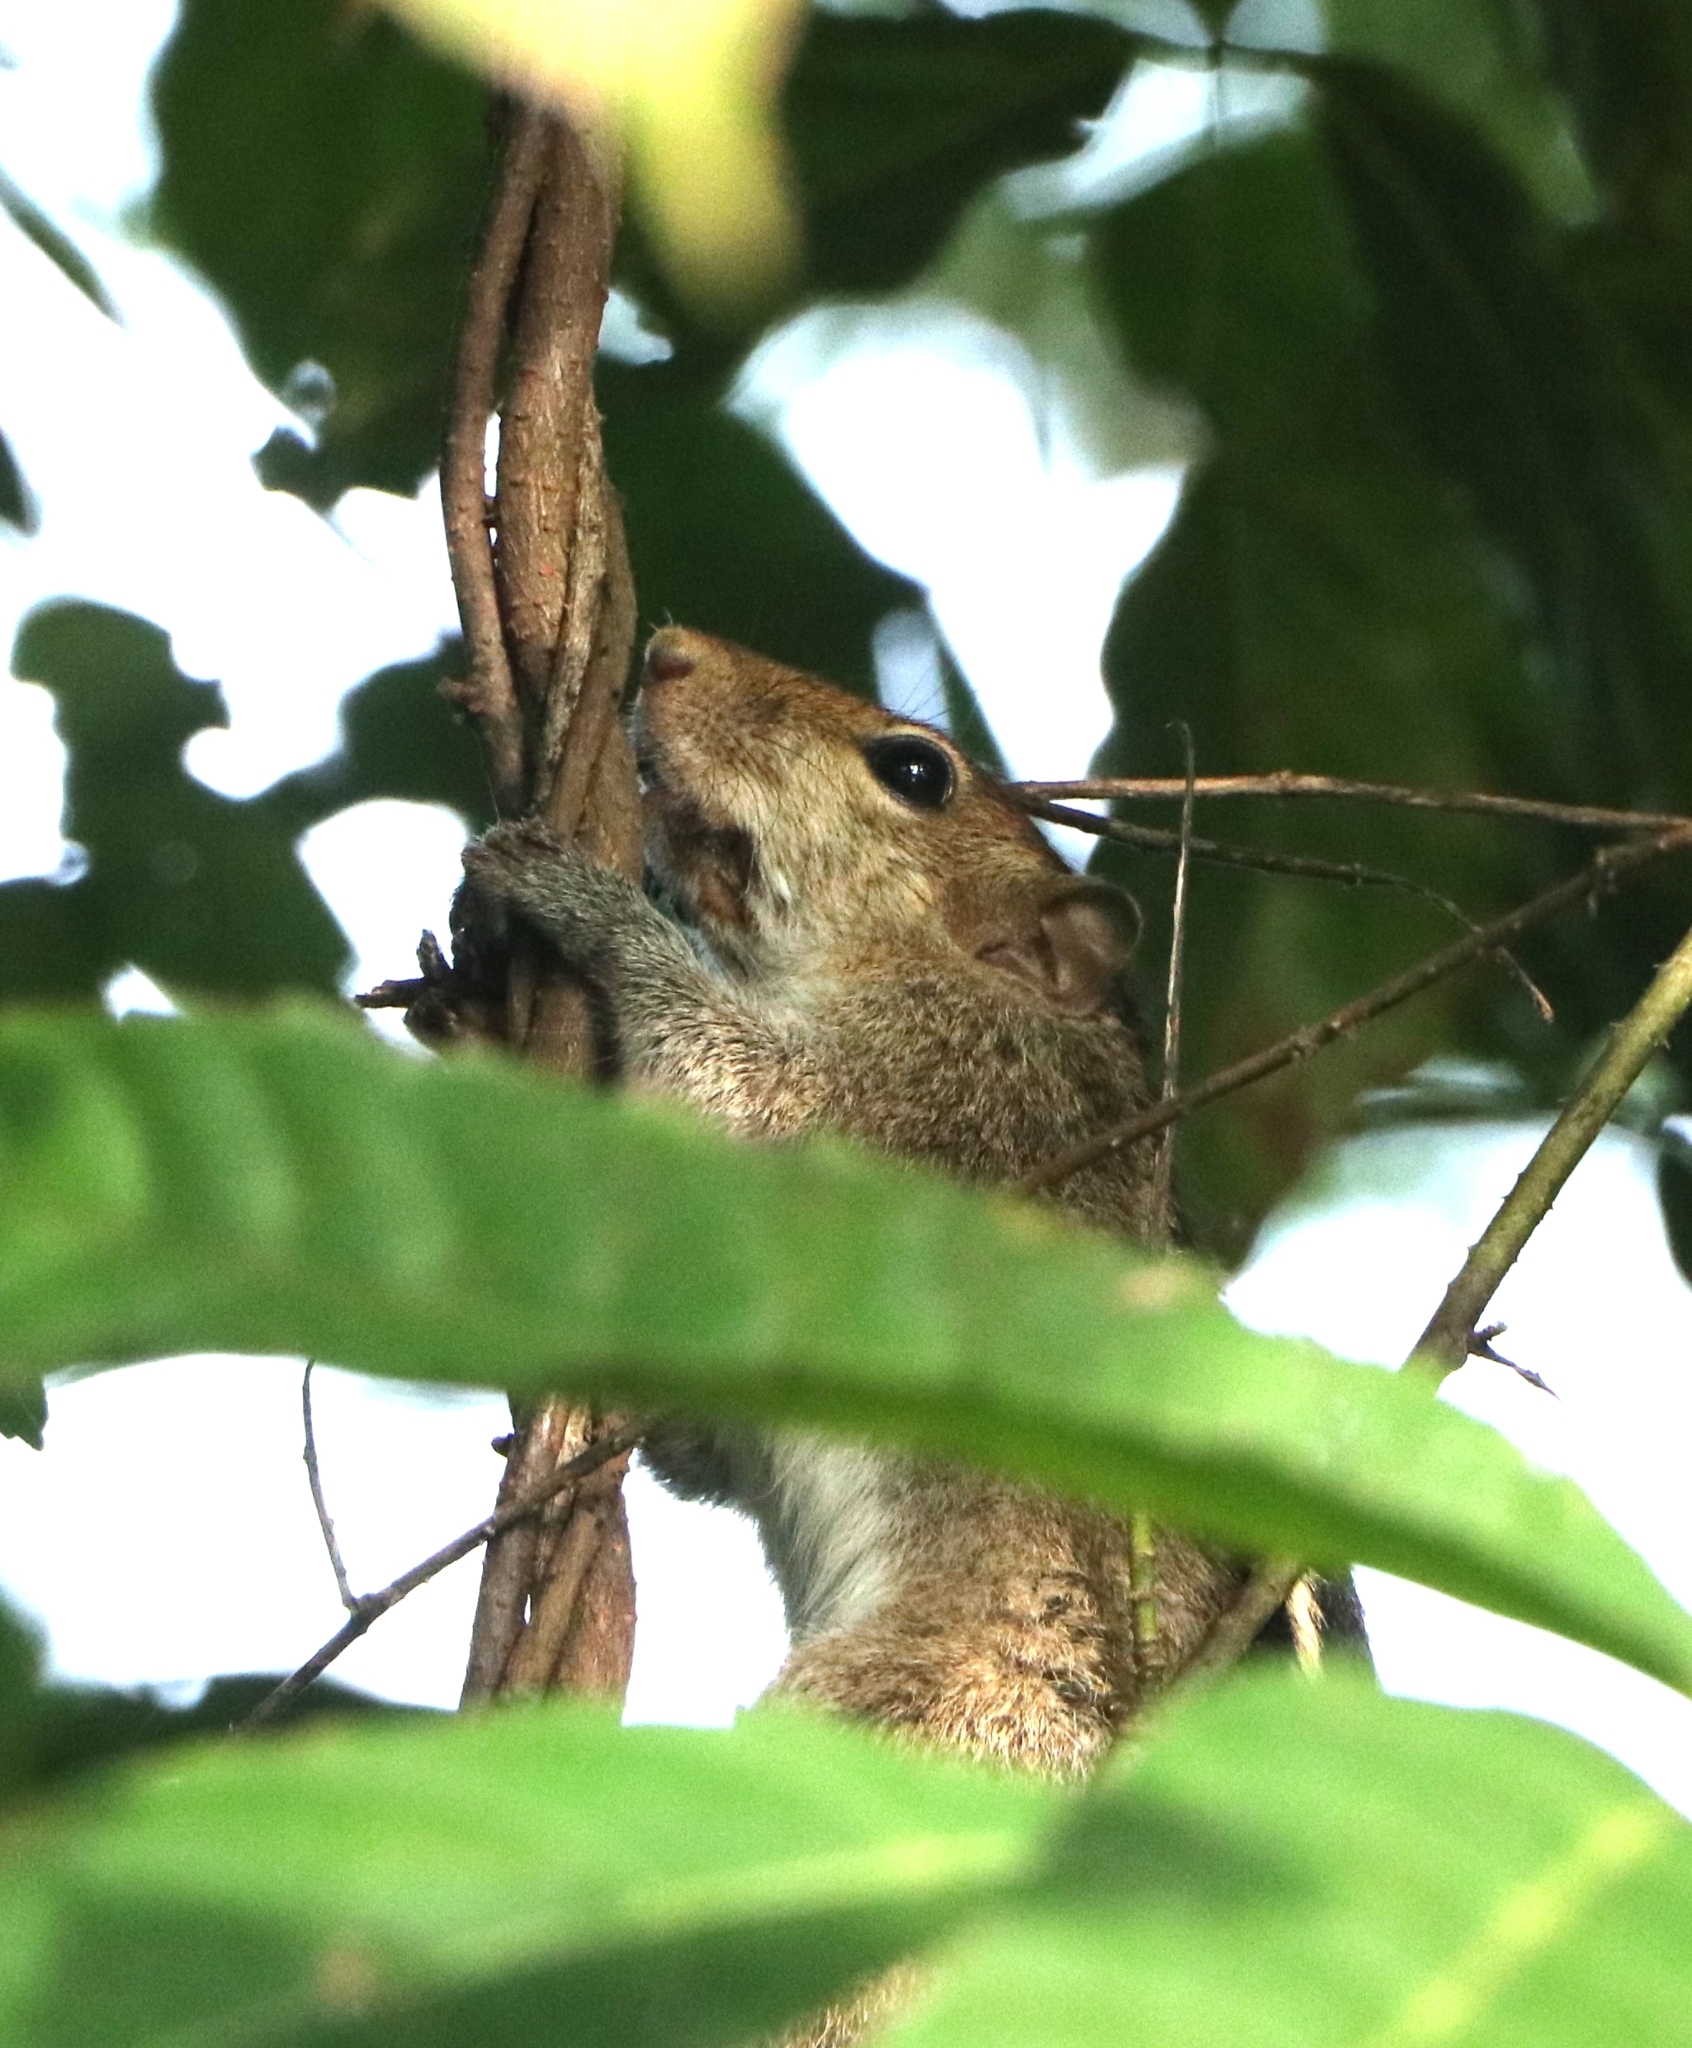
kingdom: Animalia
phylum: Chordata
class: Mammalia
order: Rodentia
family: Sciuridae
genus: Funambulus
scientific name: Funambulus tristriatus
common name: Jungle palm squirrel
